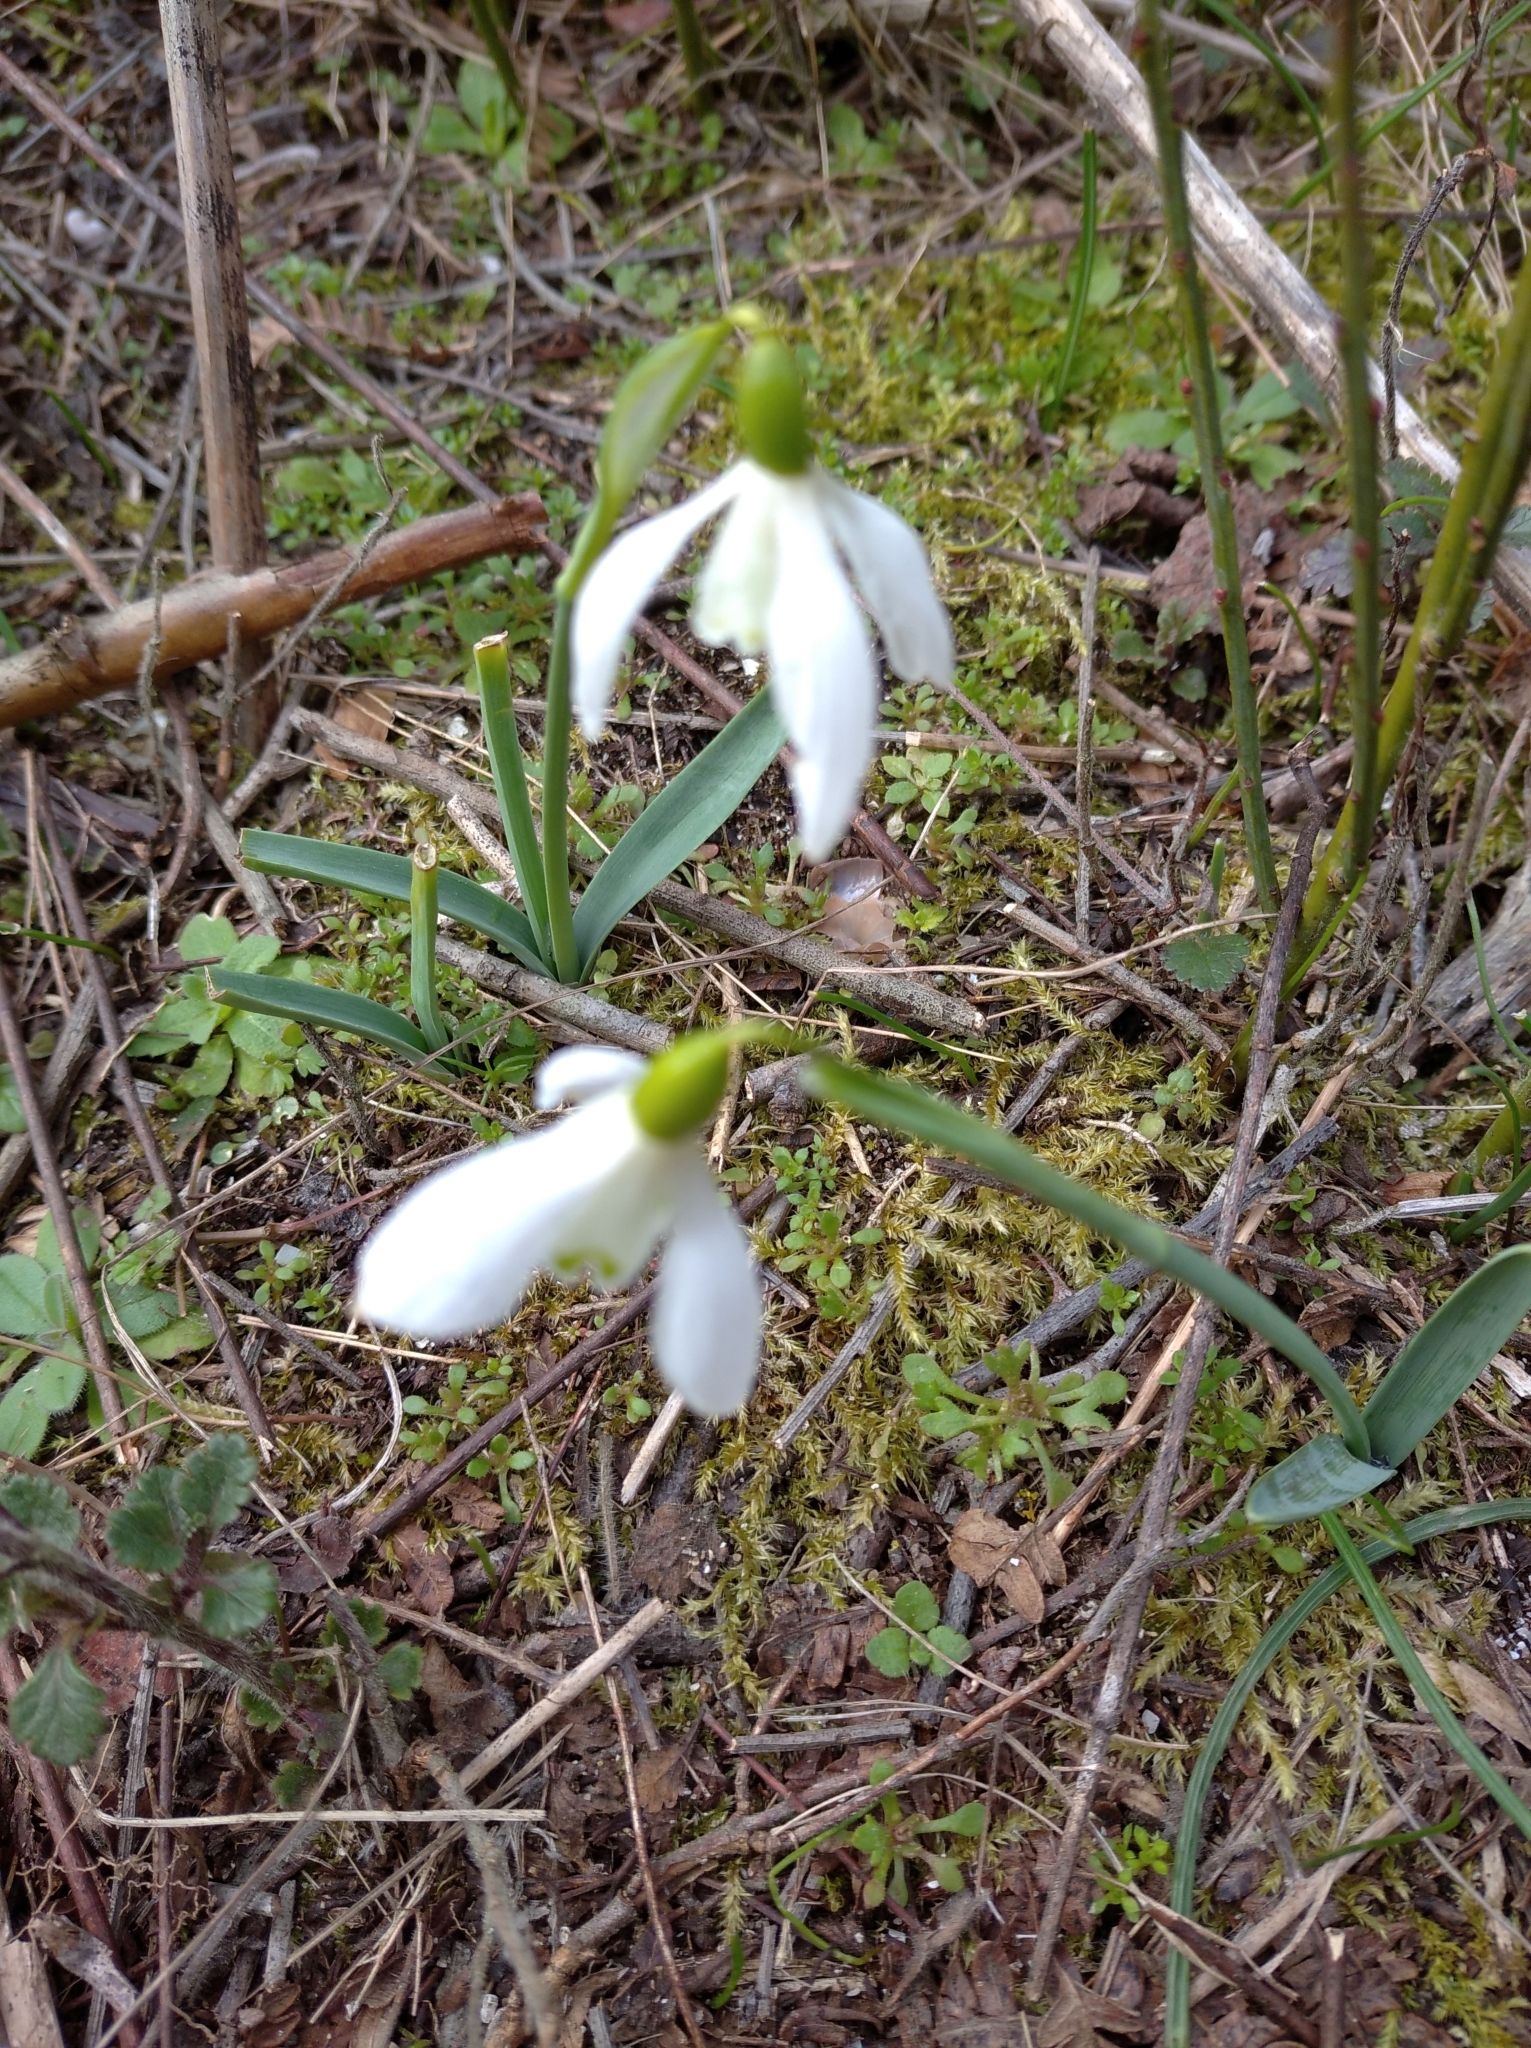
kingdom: Plantae
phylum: Tracheophyta
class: Liliopsida
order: Asparagales
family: Amaryllidaceae
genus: Galanthus
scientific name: Galanthus nivalis
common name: Snowdrop
